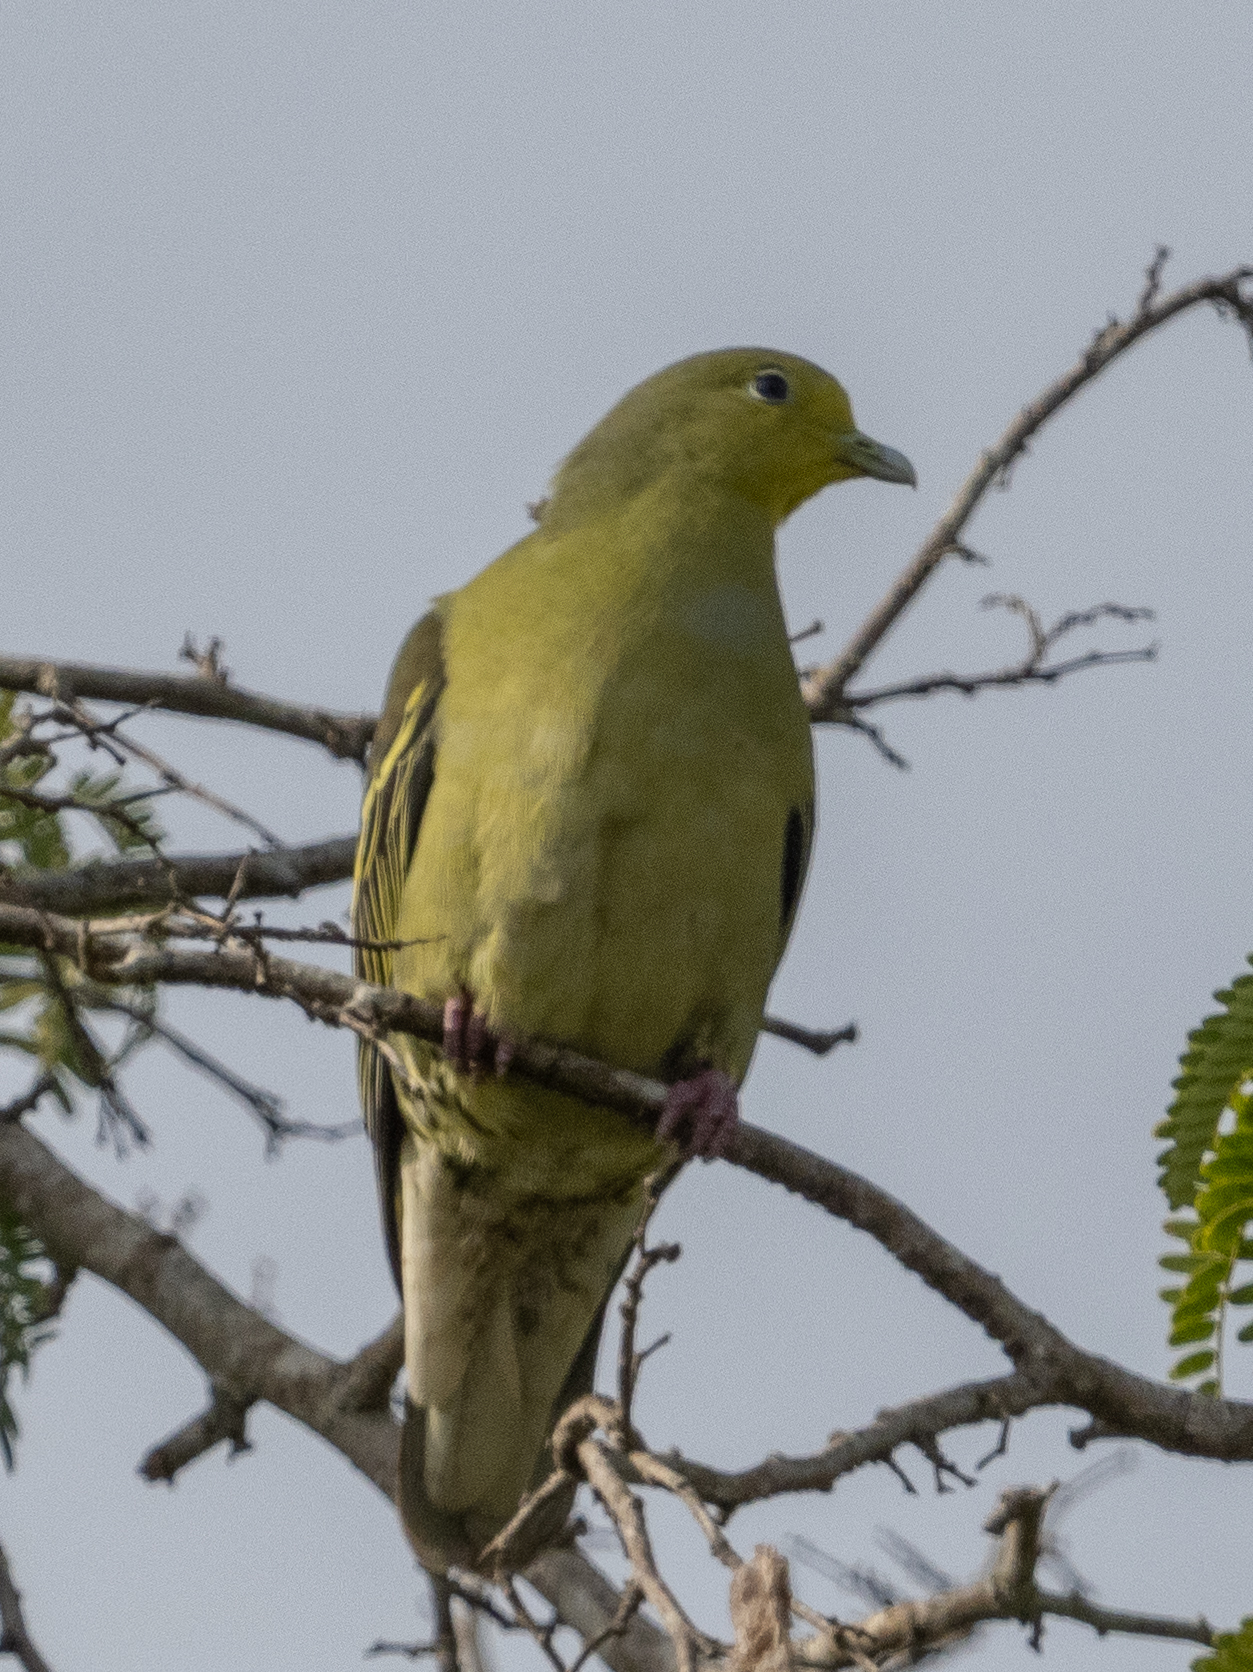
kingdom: Animalia
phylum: Chordata
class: Aves
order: Columbiformes
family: Columbidae
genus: Treron
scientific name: Treron pompadora
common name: Pompadour green pigeon
